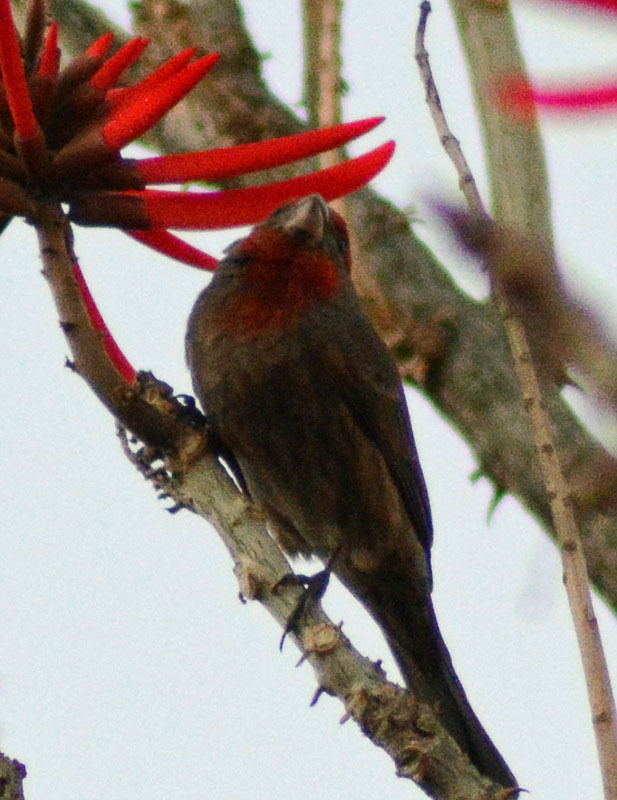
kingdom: Animalia
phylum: Chordata
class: Aves
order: Passeriformes
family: Fringillidae
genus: Haemorhous
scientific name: Haemorhous mexicanus
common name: House finch
